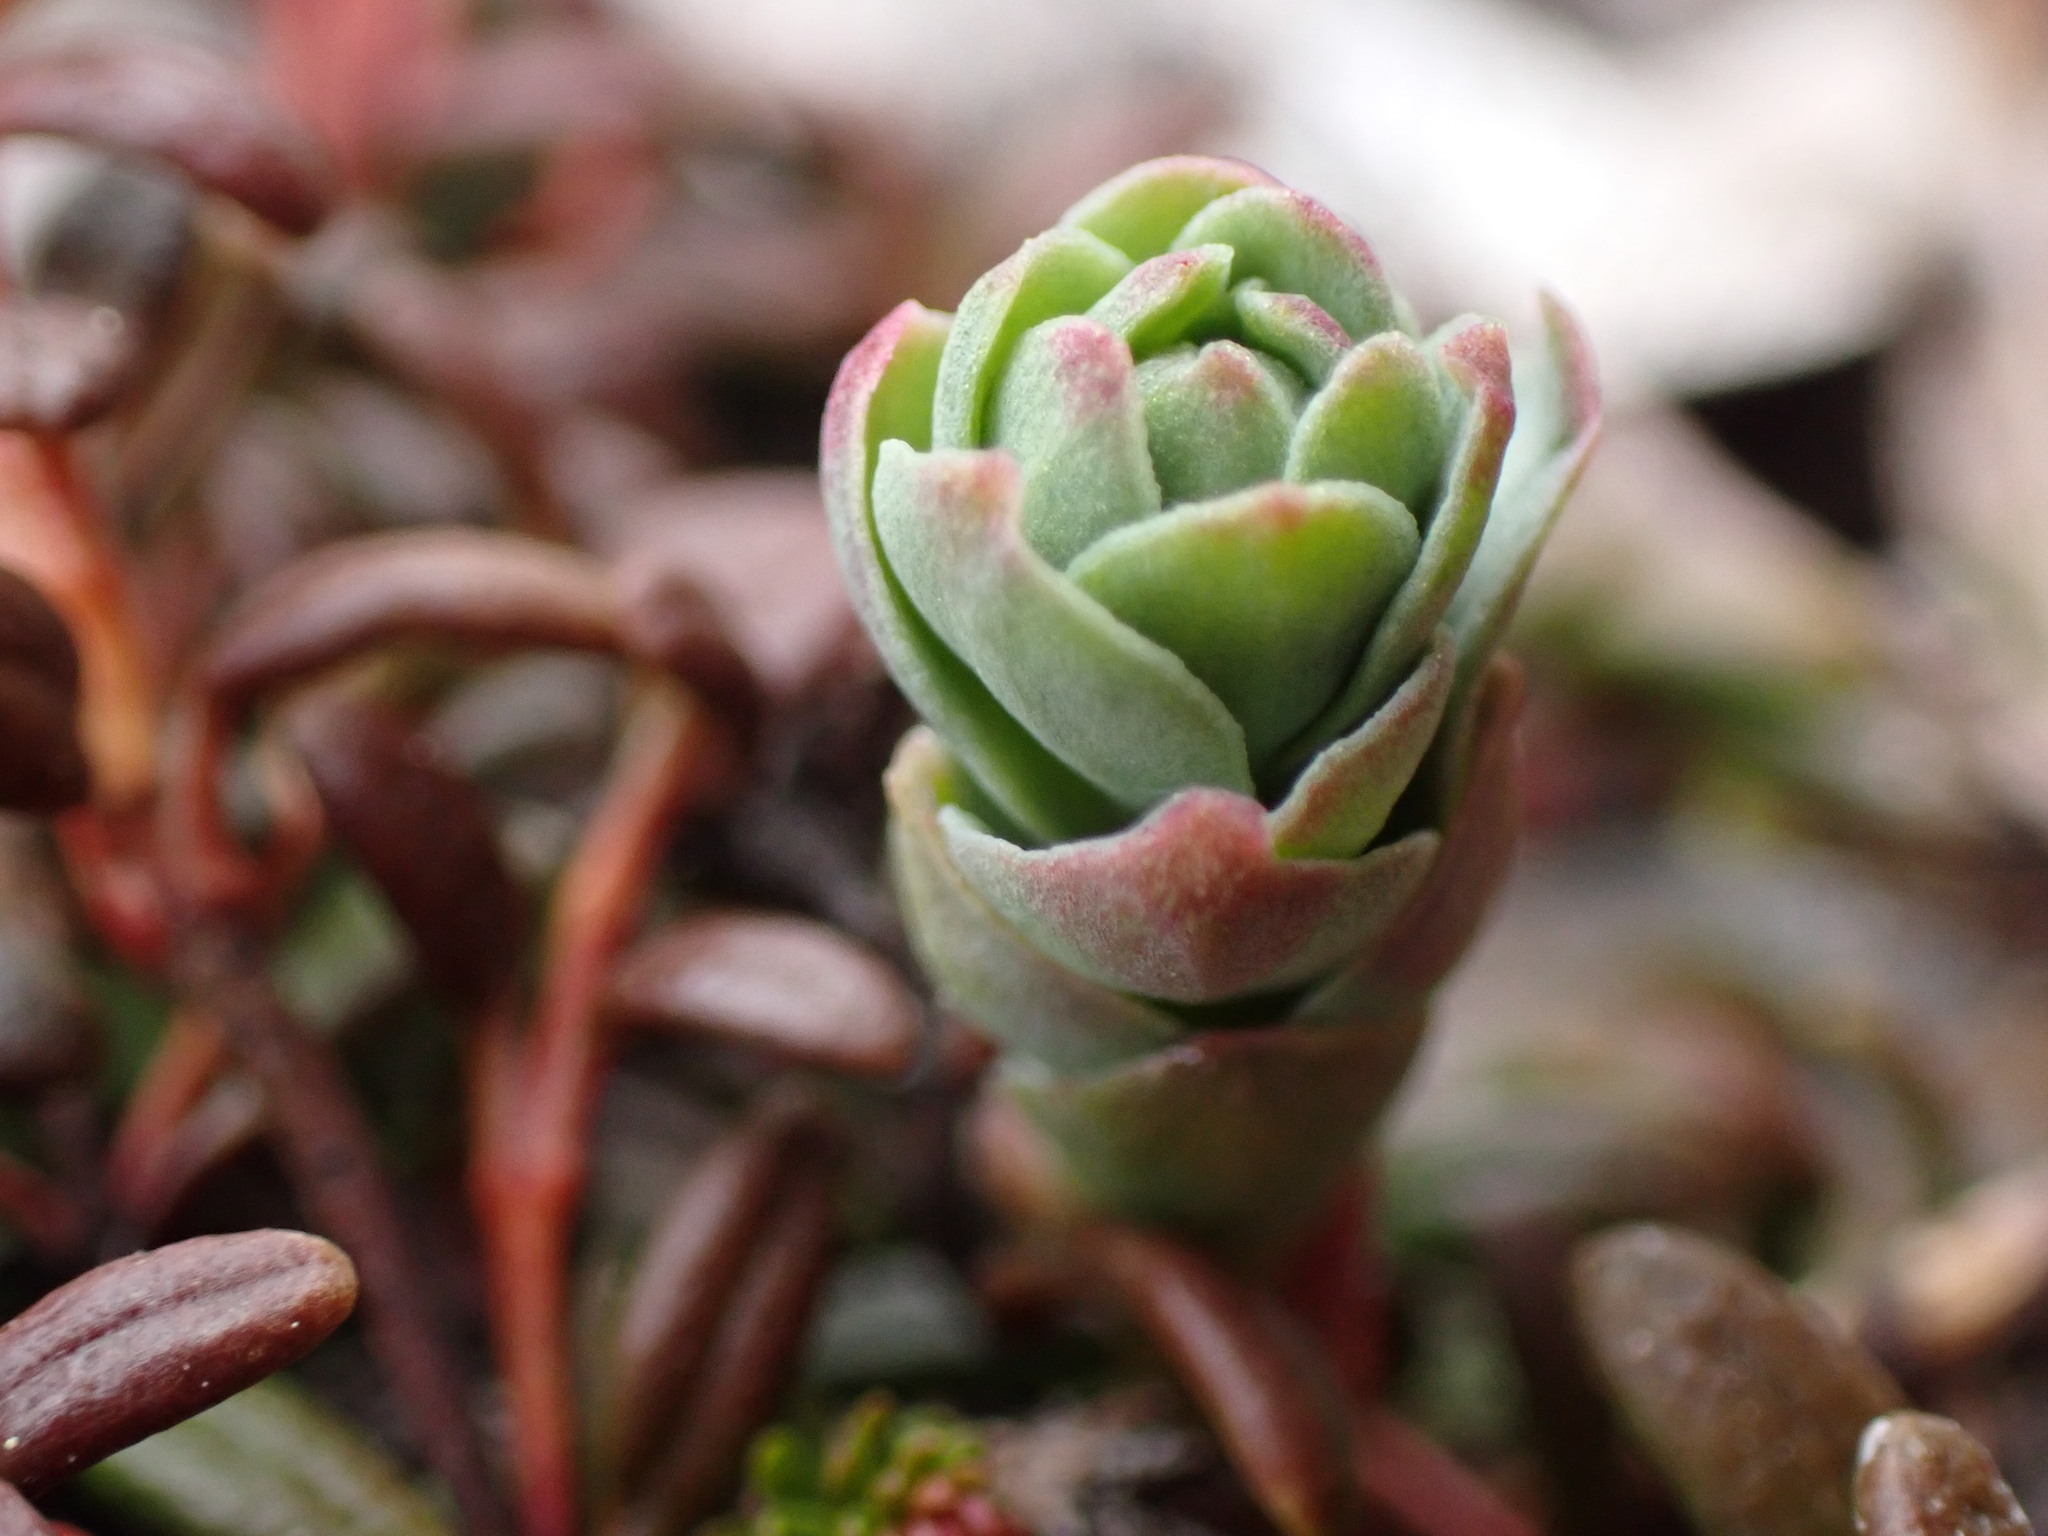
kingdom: Plantae
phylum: Tracheophyta
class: Magnoliopsida
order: Saxifragales
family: Crassulaceae
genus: Rhodiola
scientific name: Rhodiola integrifolia
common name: Western roseroot
